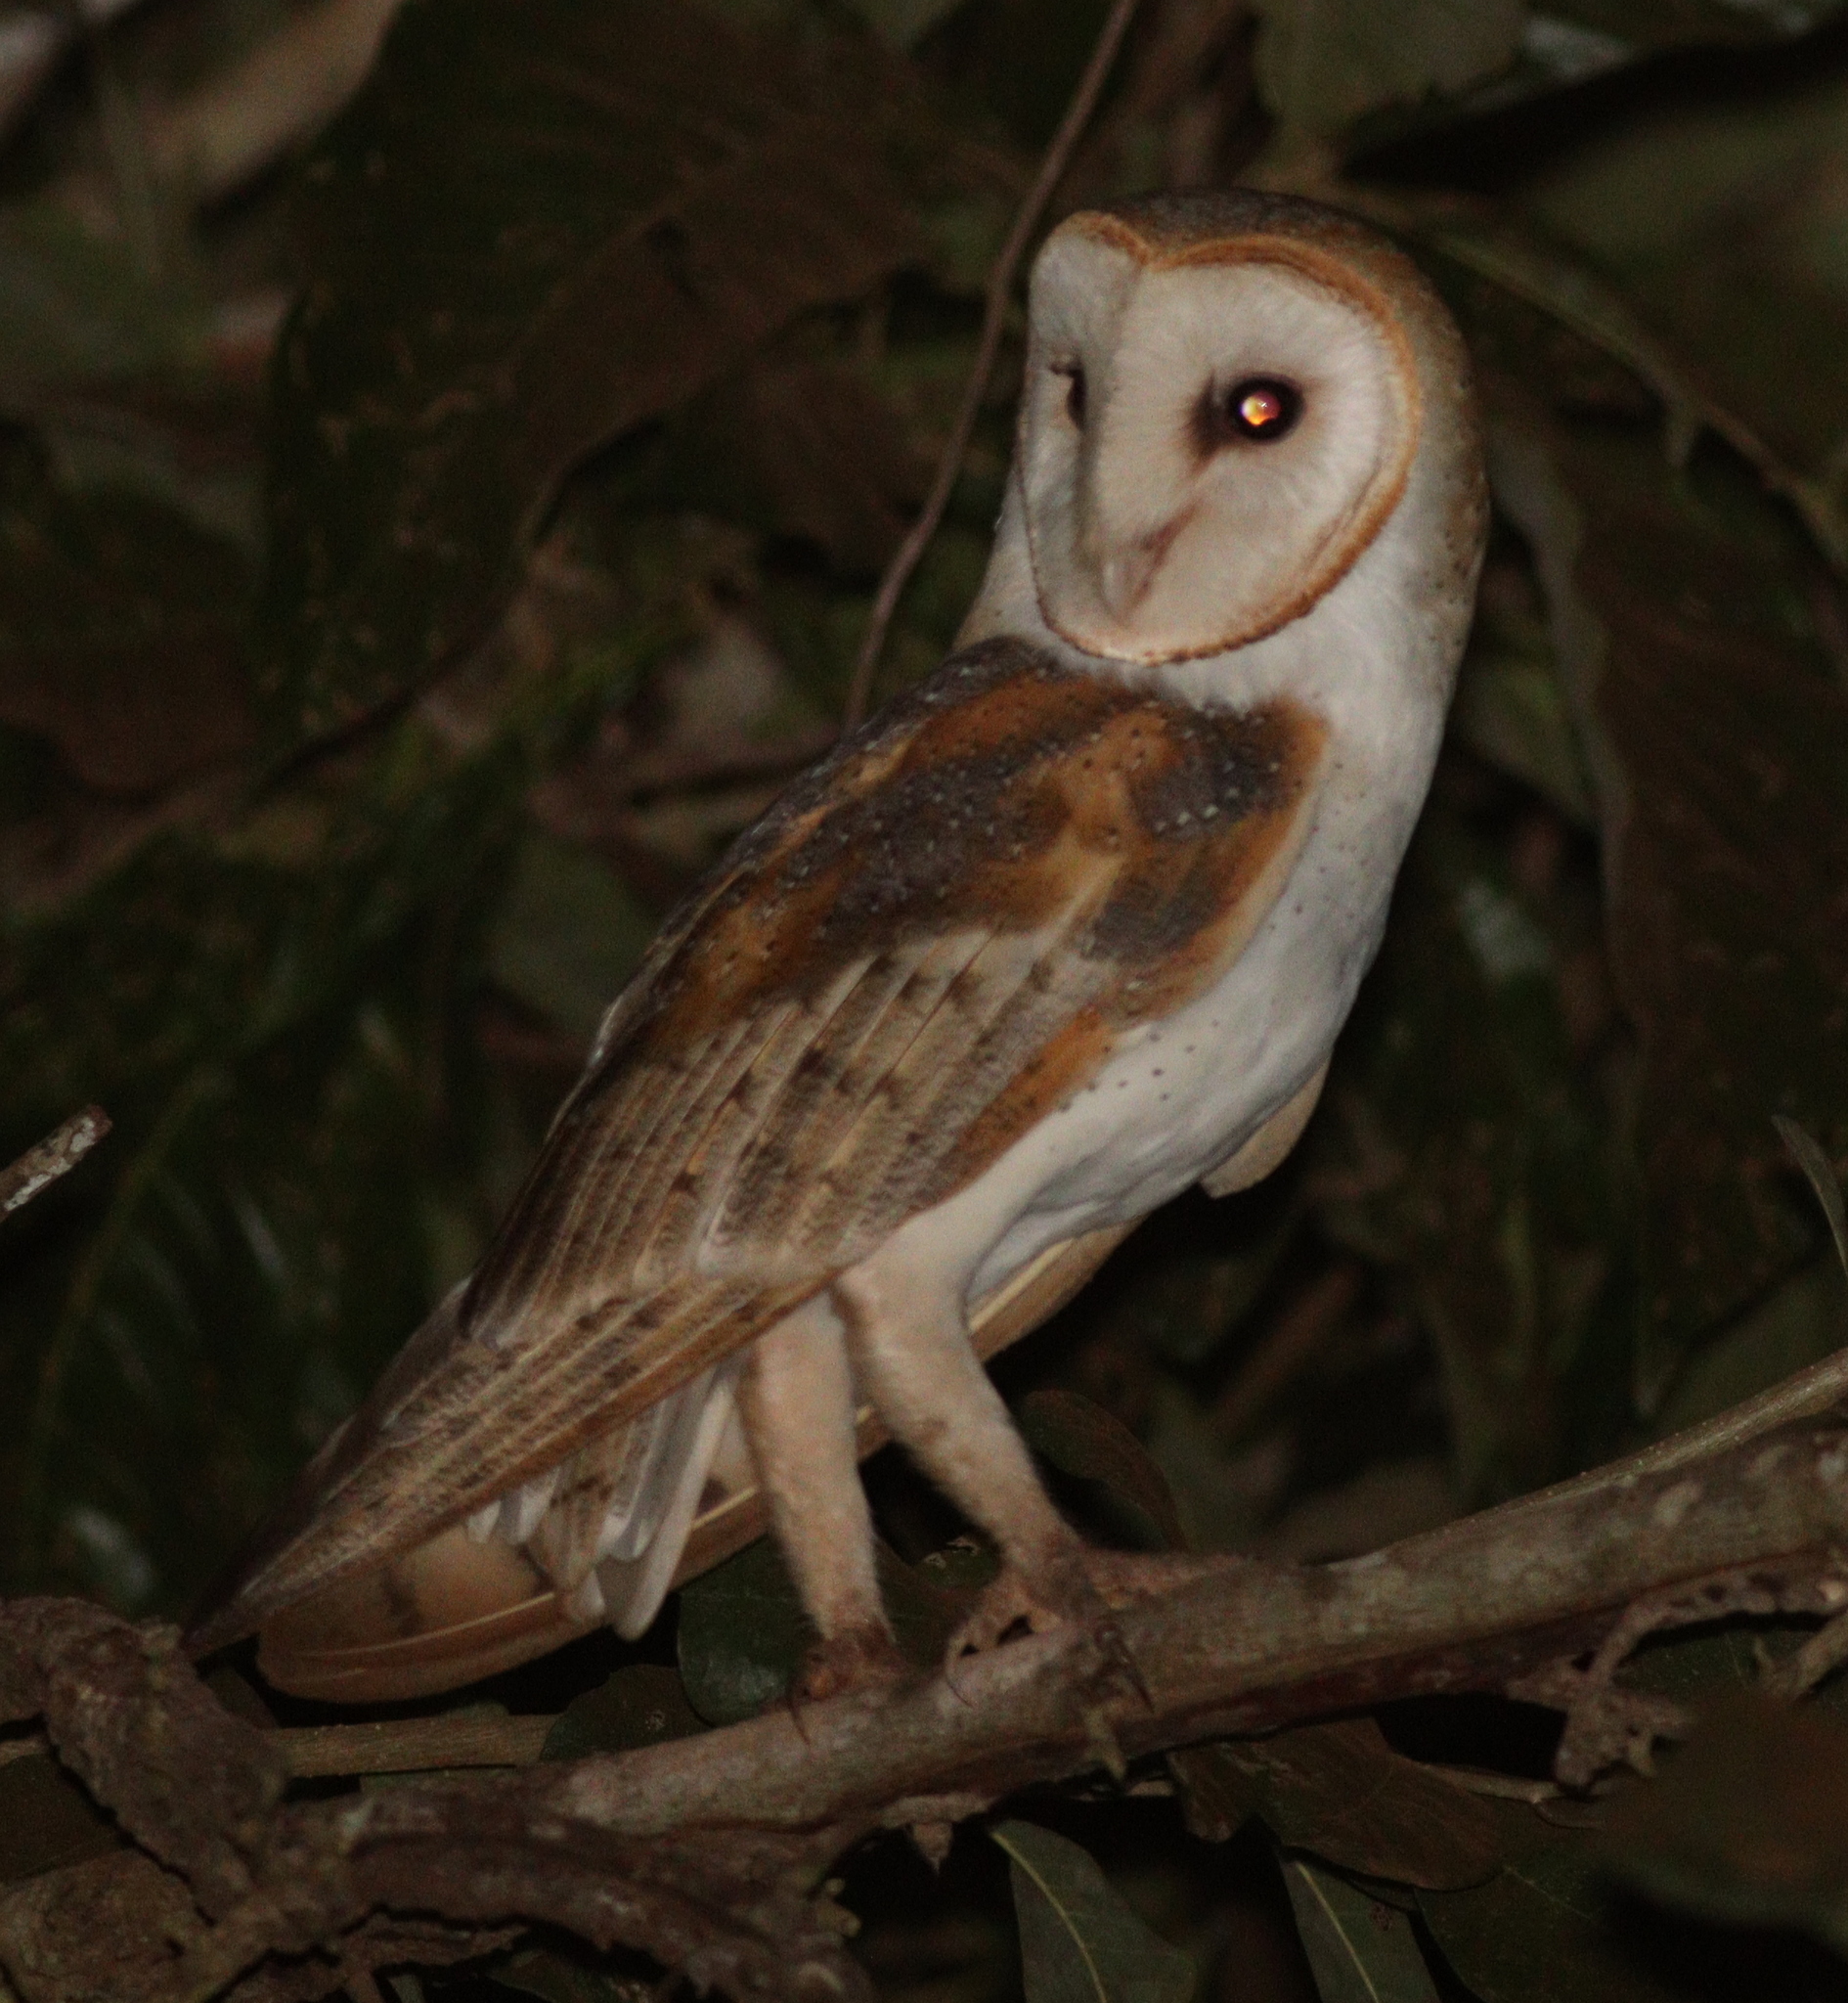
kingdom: Animalia
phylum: Chordata
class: Aves
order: Strigiformes
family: Tytonidae
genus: Tyto
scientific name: Tyto alba
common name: Barn owl
